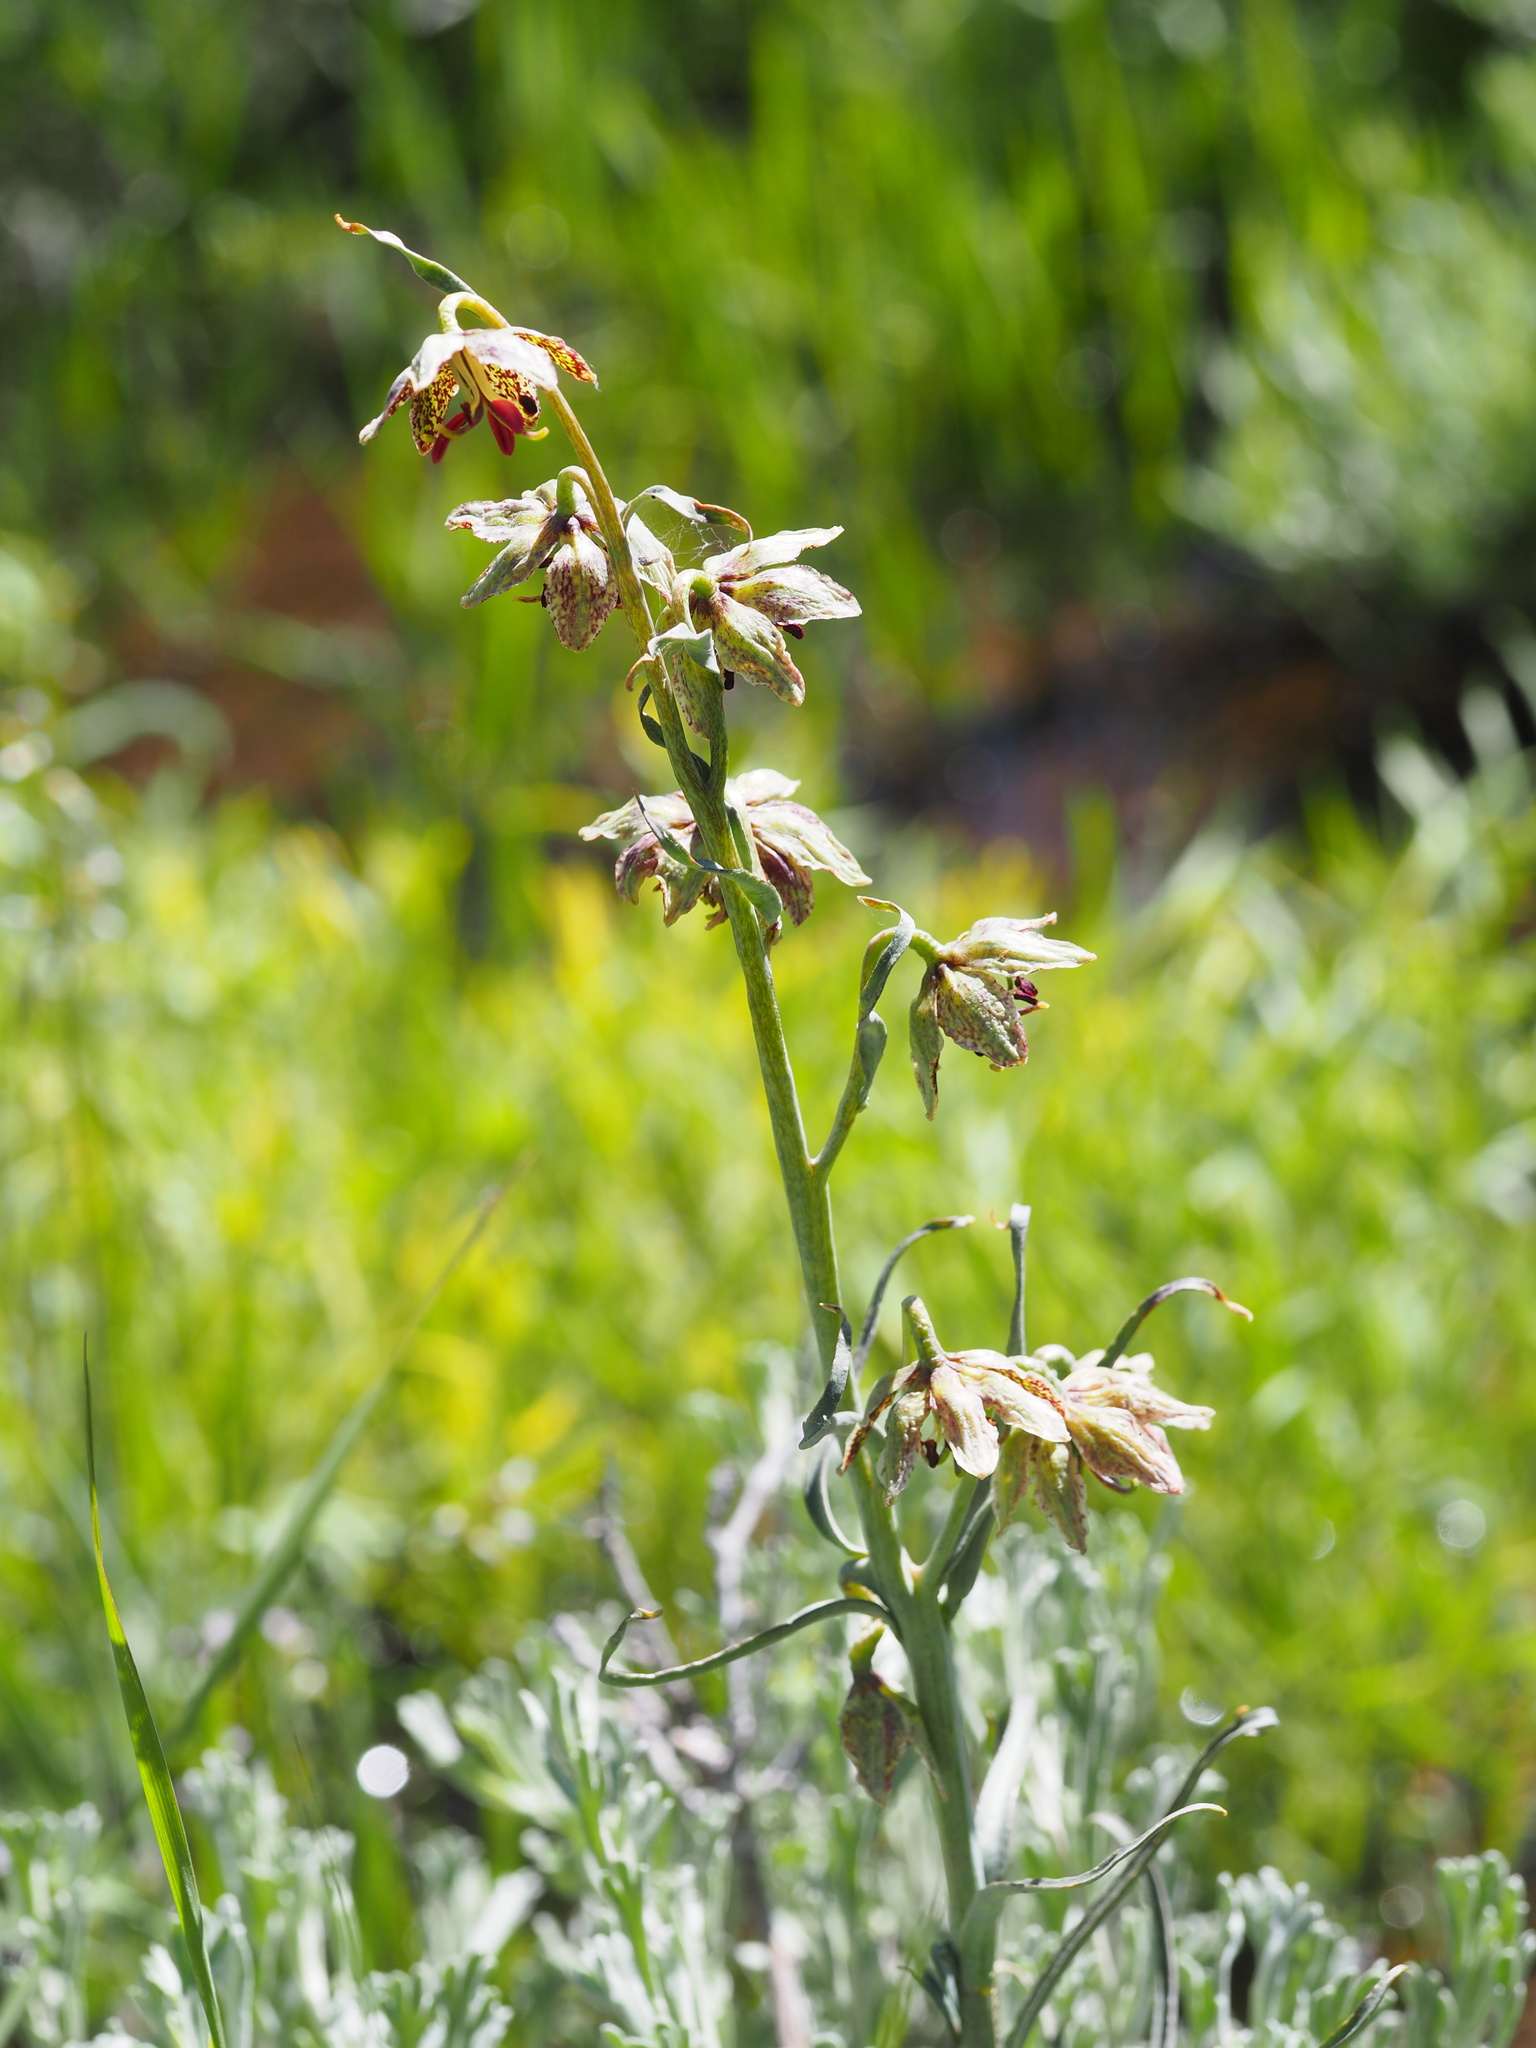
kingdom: Plantae
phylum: Tracheophyta
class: Liliopsida
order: Liliales
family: Liliaceae
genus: Fritillaria
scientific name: Fritillaria atropurpurea
